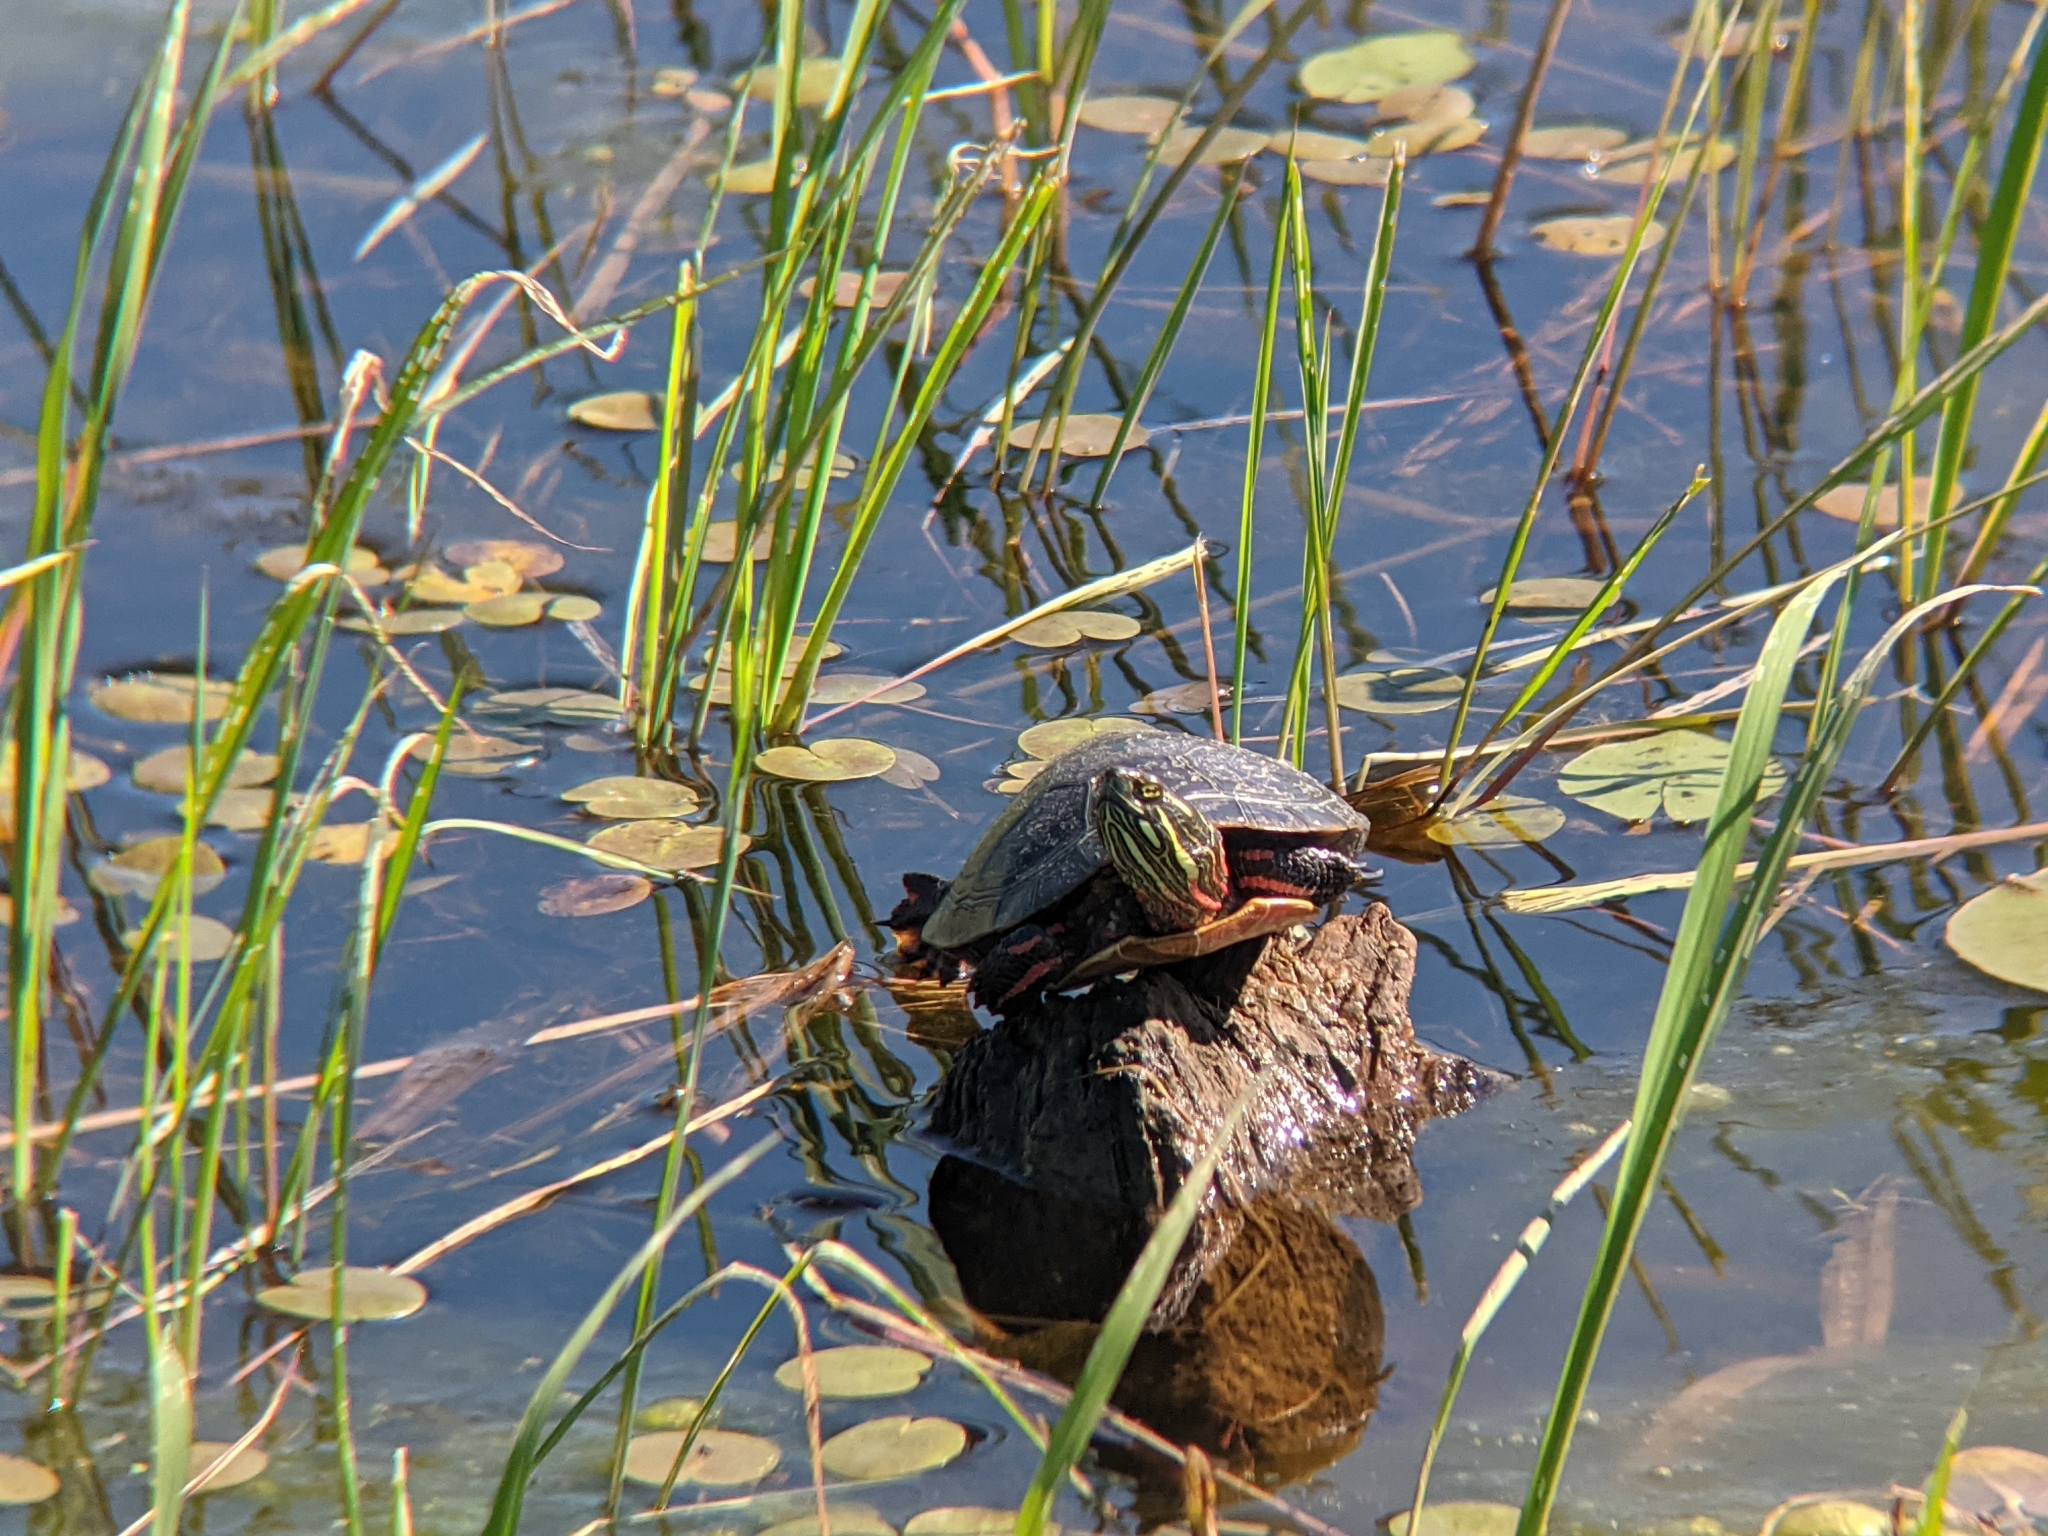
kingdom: Animalia
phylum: Chordata
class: Testudines
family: Emydidae
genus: Chrysemys
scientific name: Chrysemys picta
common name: Painted turtle
